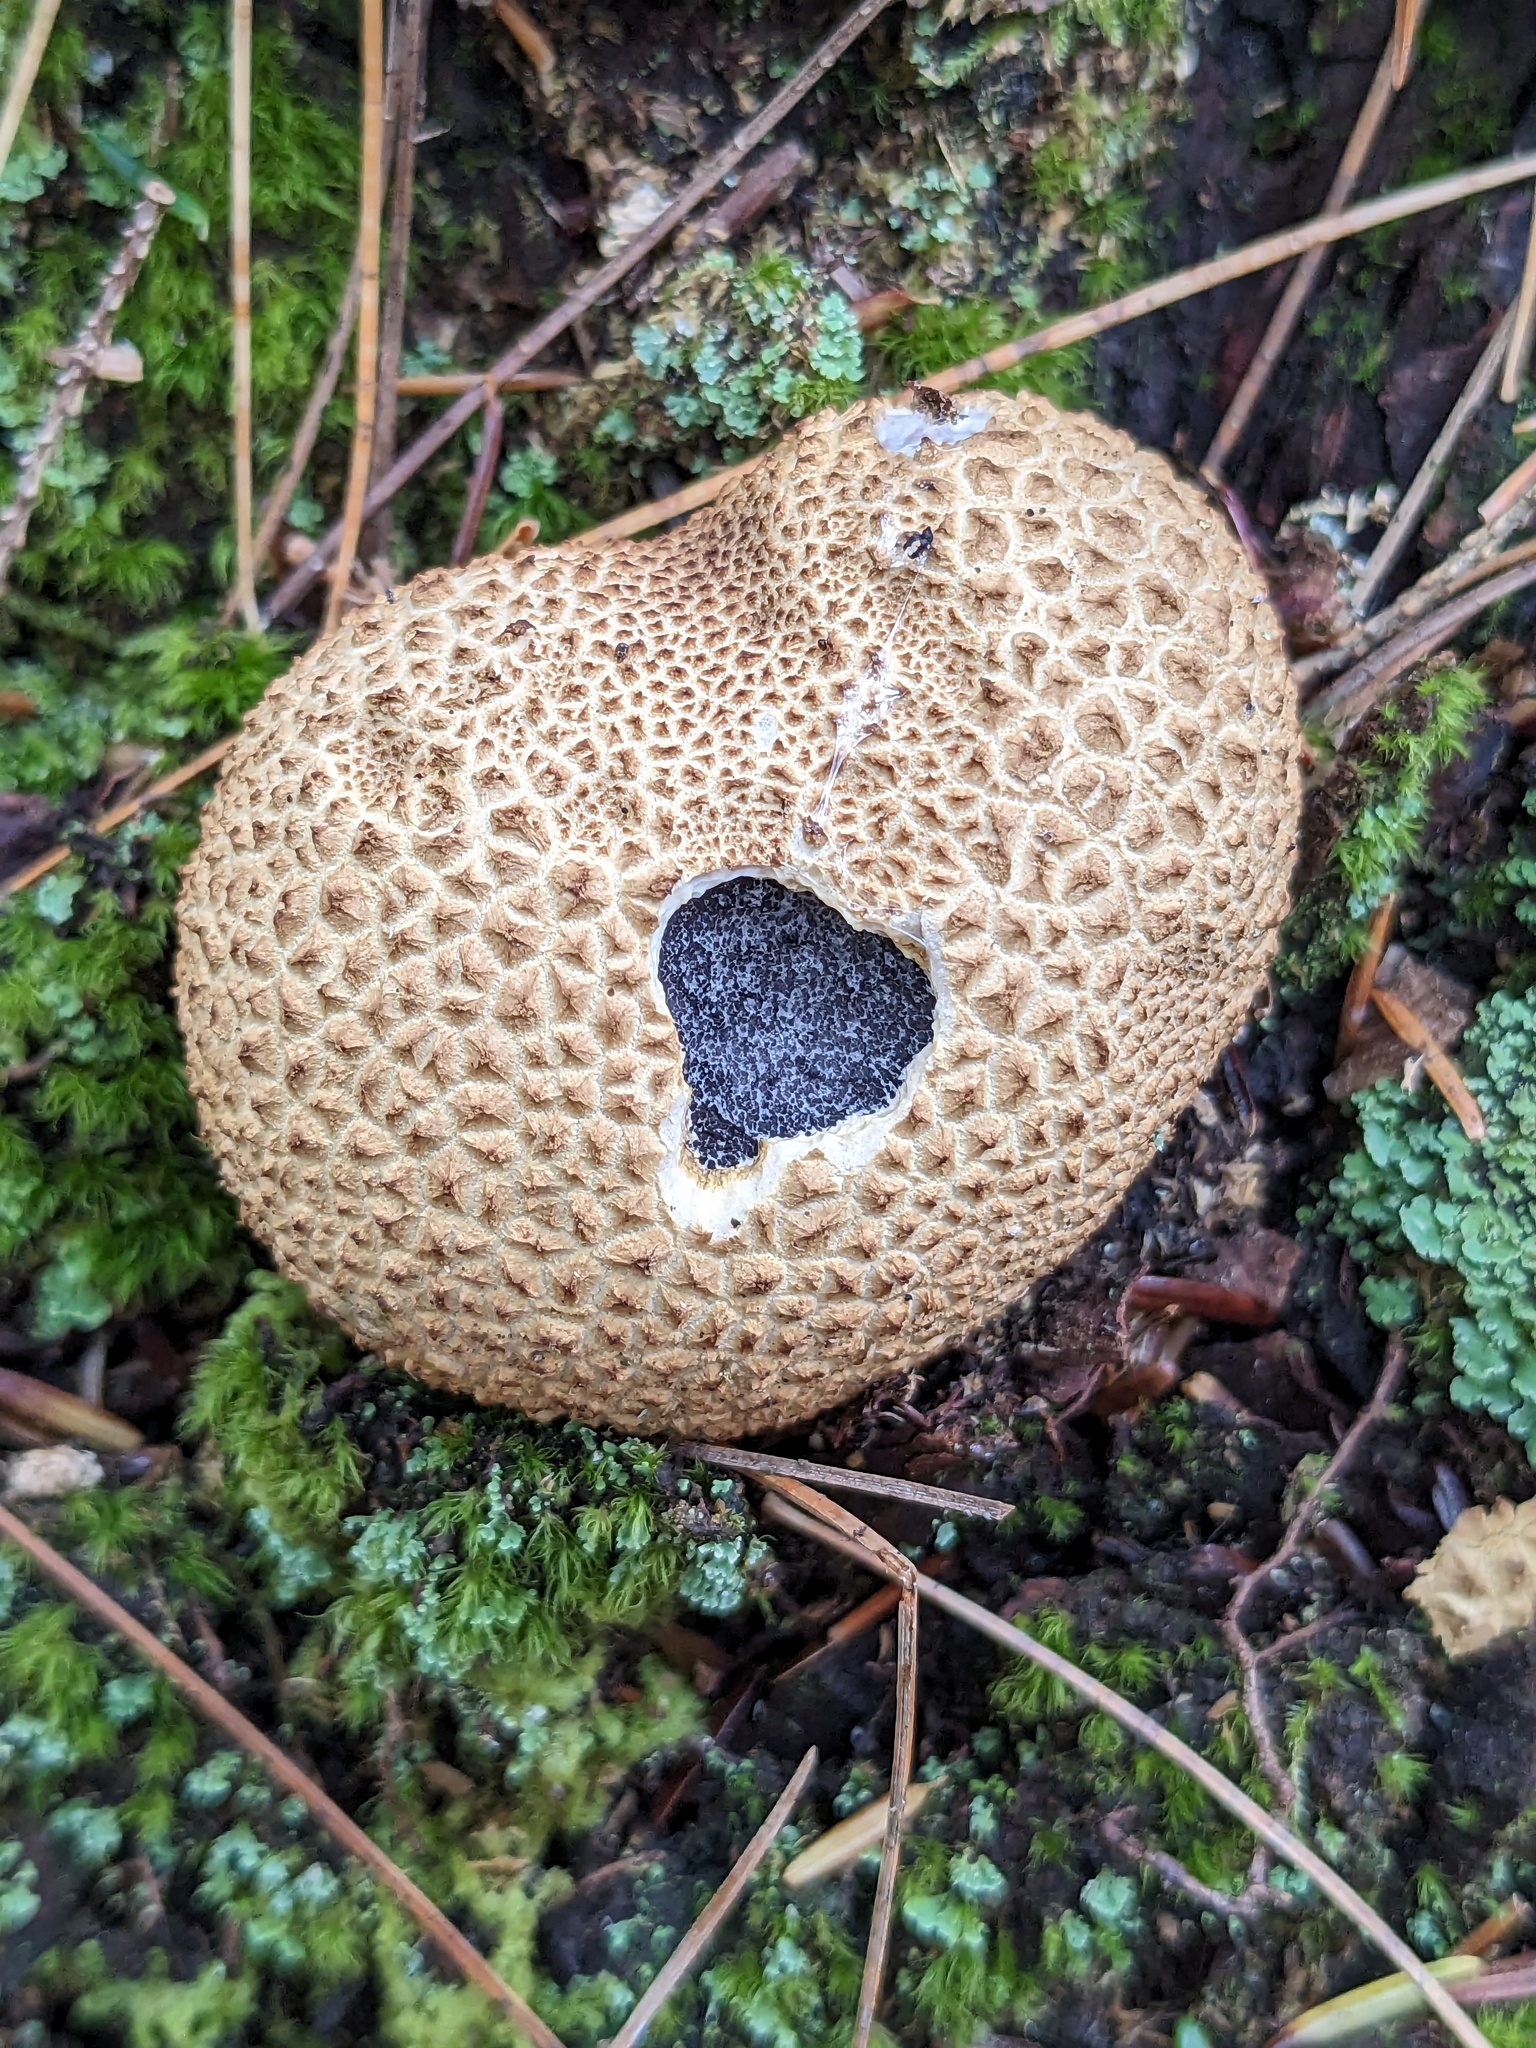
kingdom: Fungi
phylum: Basidiomycota
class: Agaricomycetes
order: Boletales
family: Sclerodermataceae
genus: Scleroderma
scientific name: Scleroderma citrinum
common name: Common earthball
